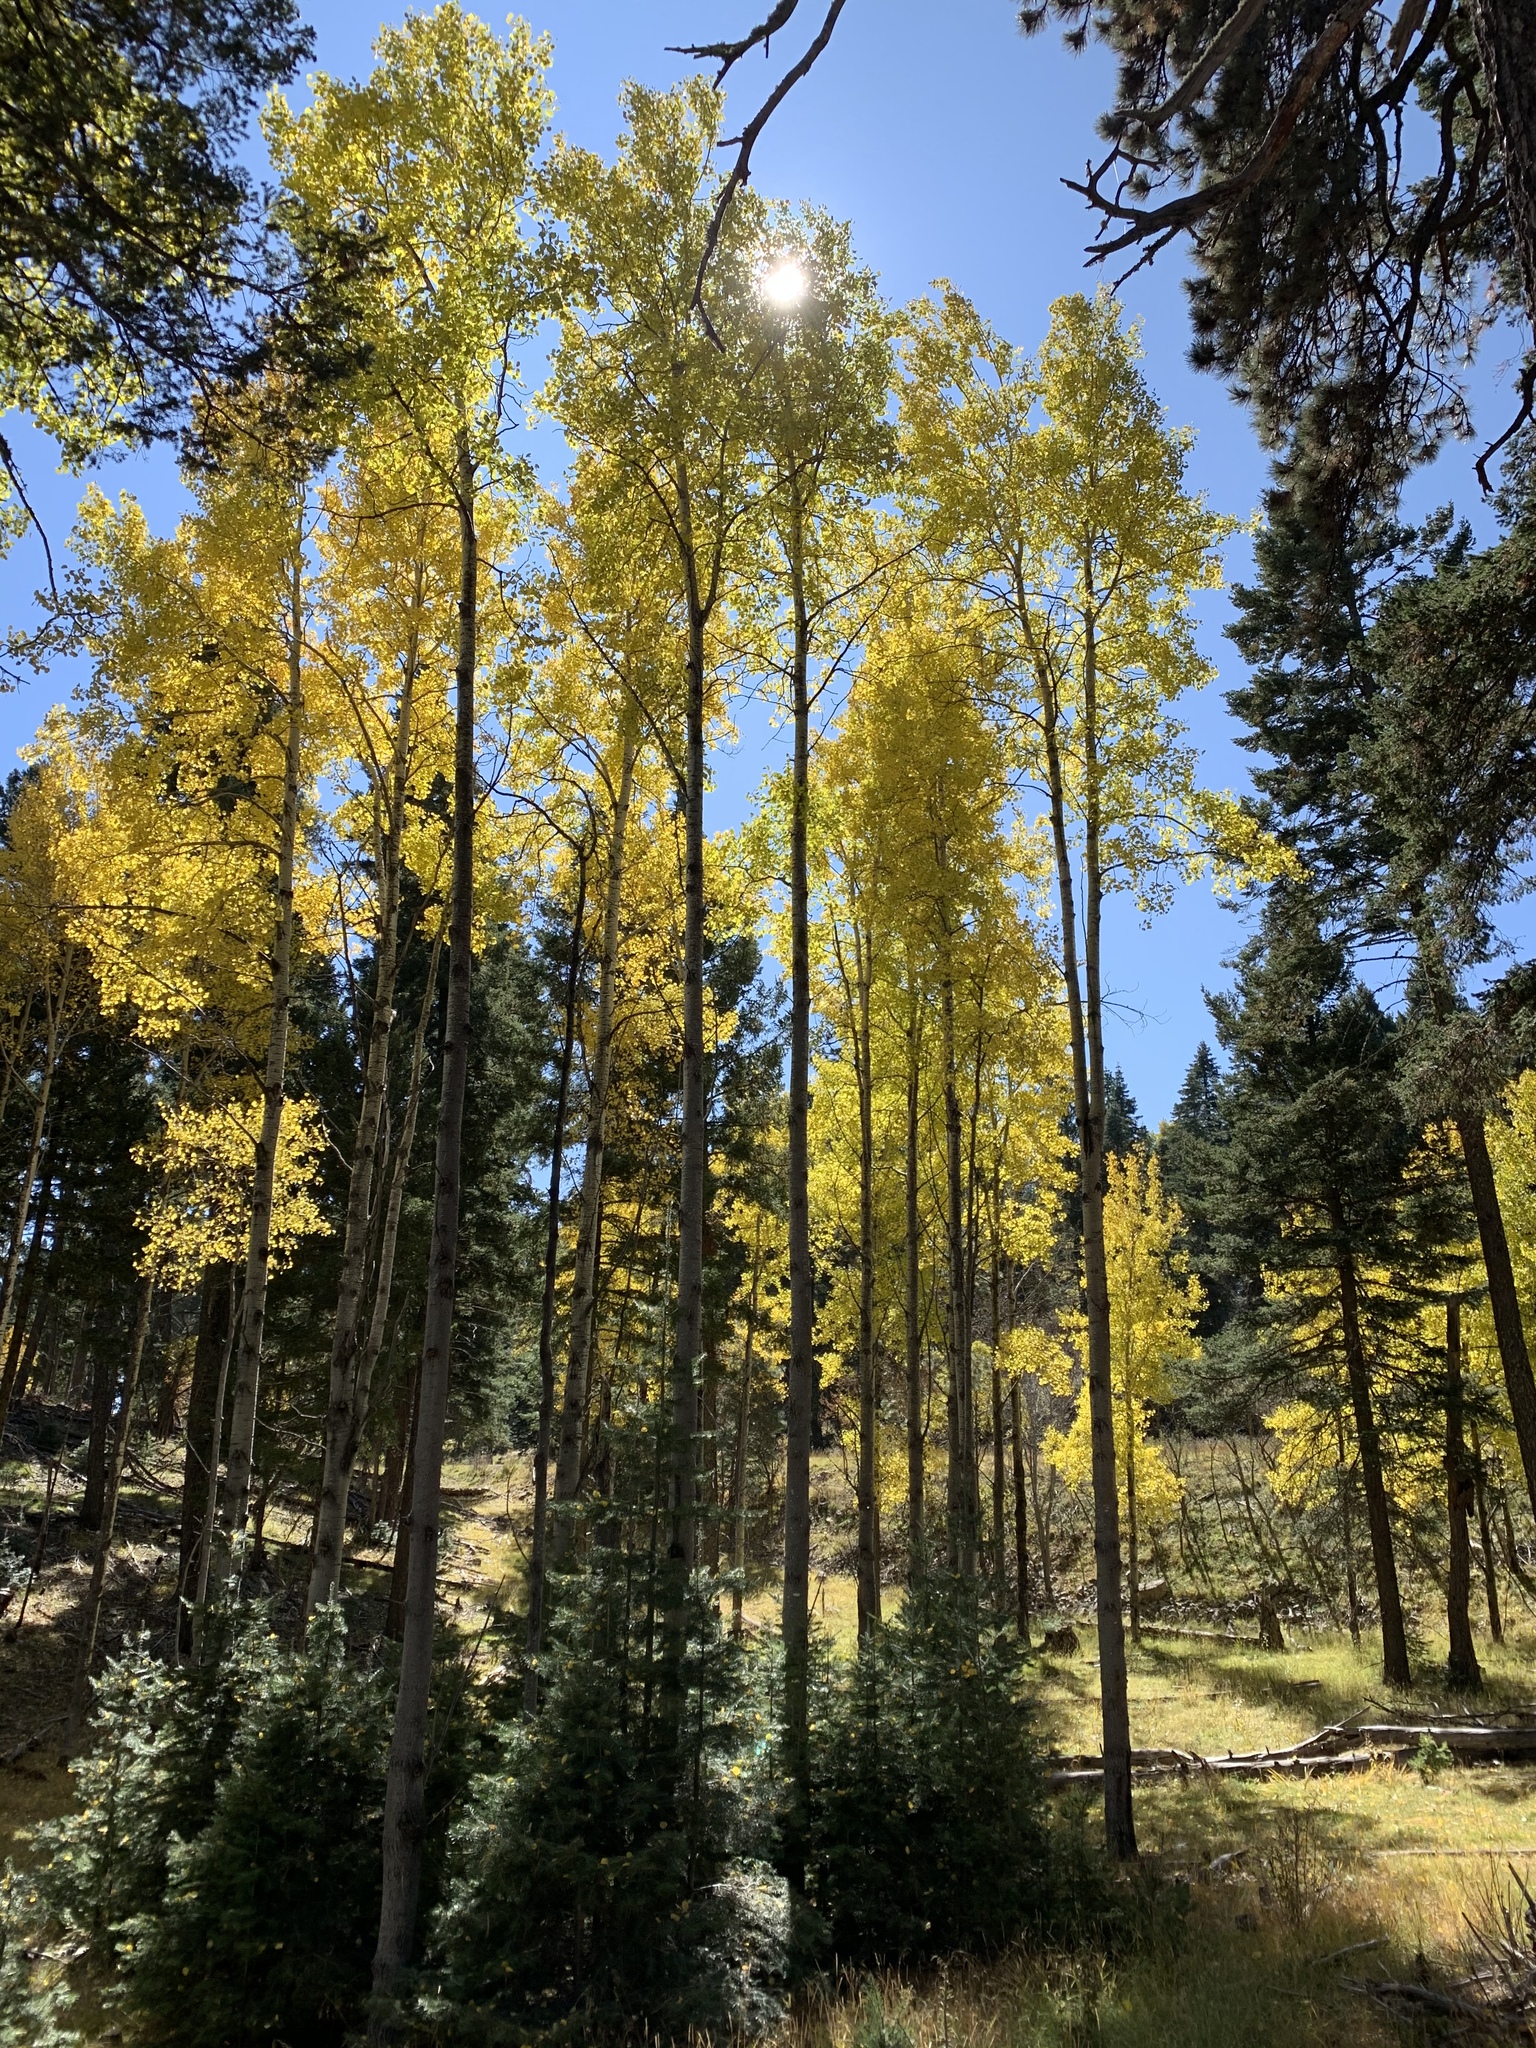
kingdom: Plantae
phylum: Tracheophyta
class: Magnoliopsida
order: Malpighiales
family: Salicaceae
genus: Populus
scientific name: Populus tremuloides
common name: Quaking aspen
